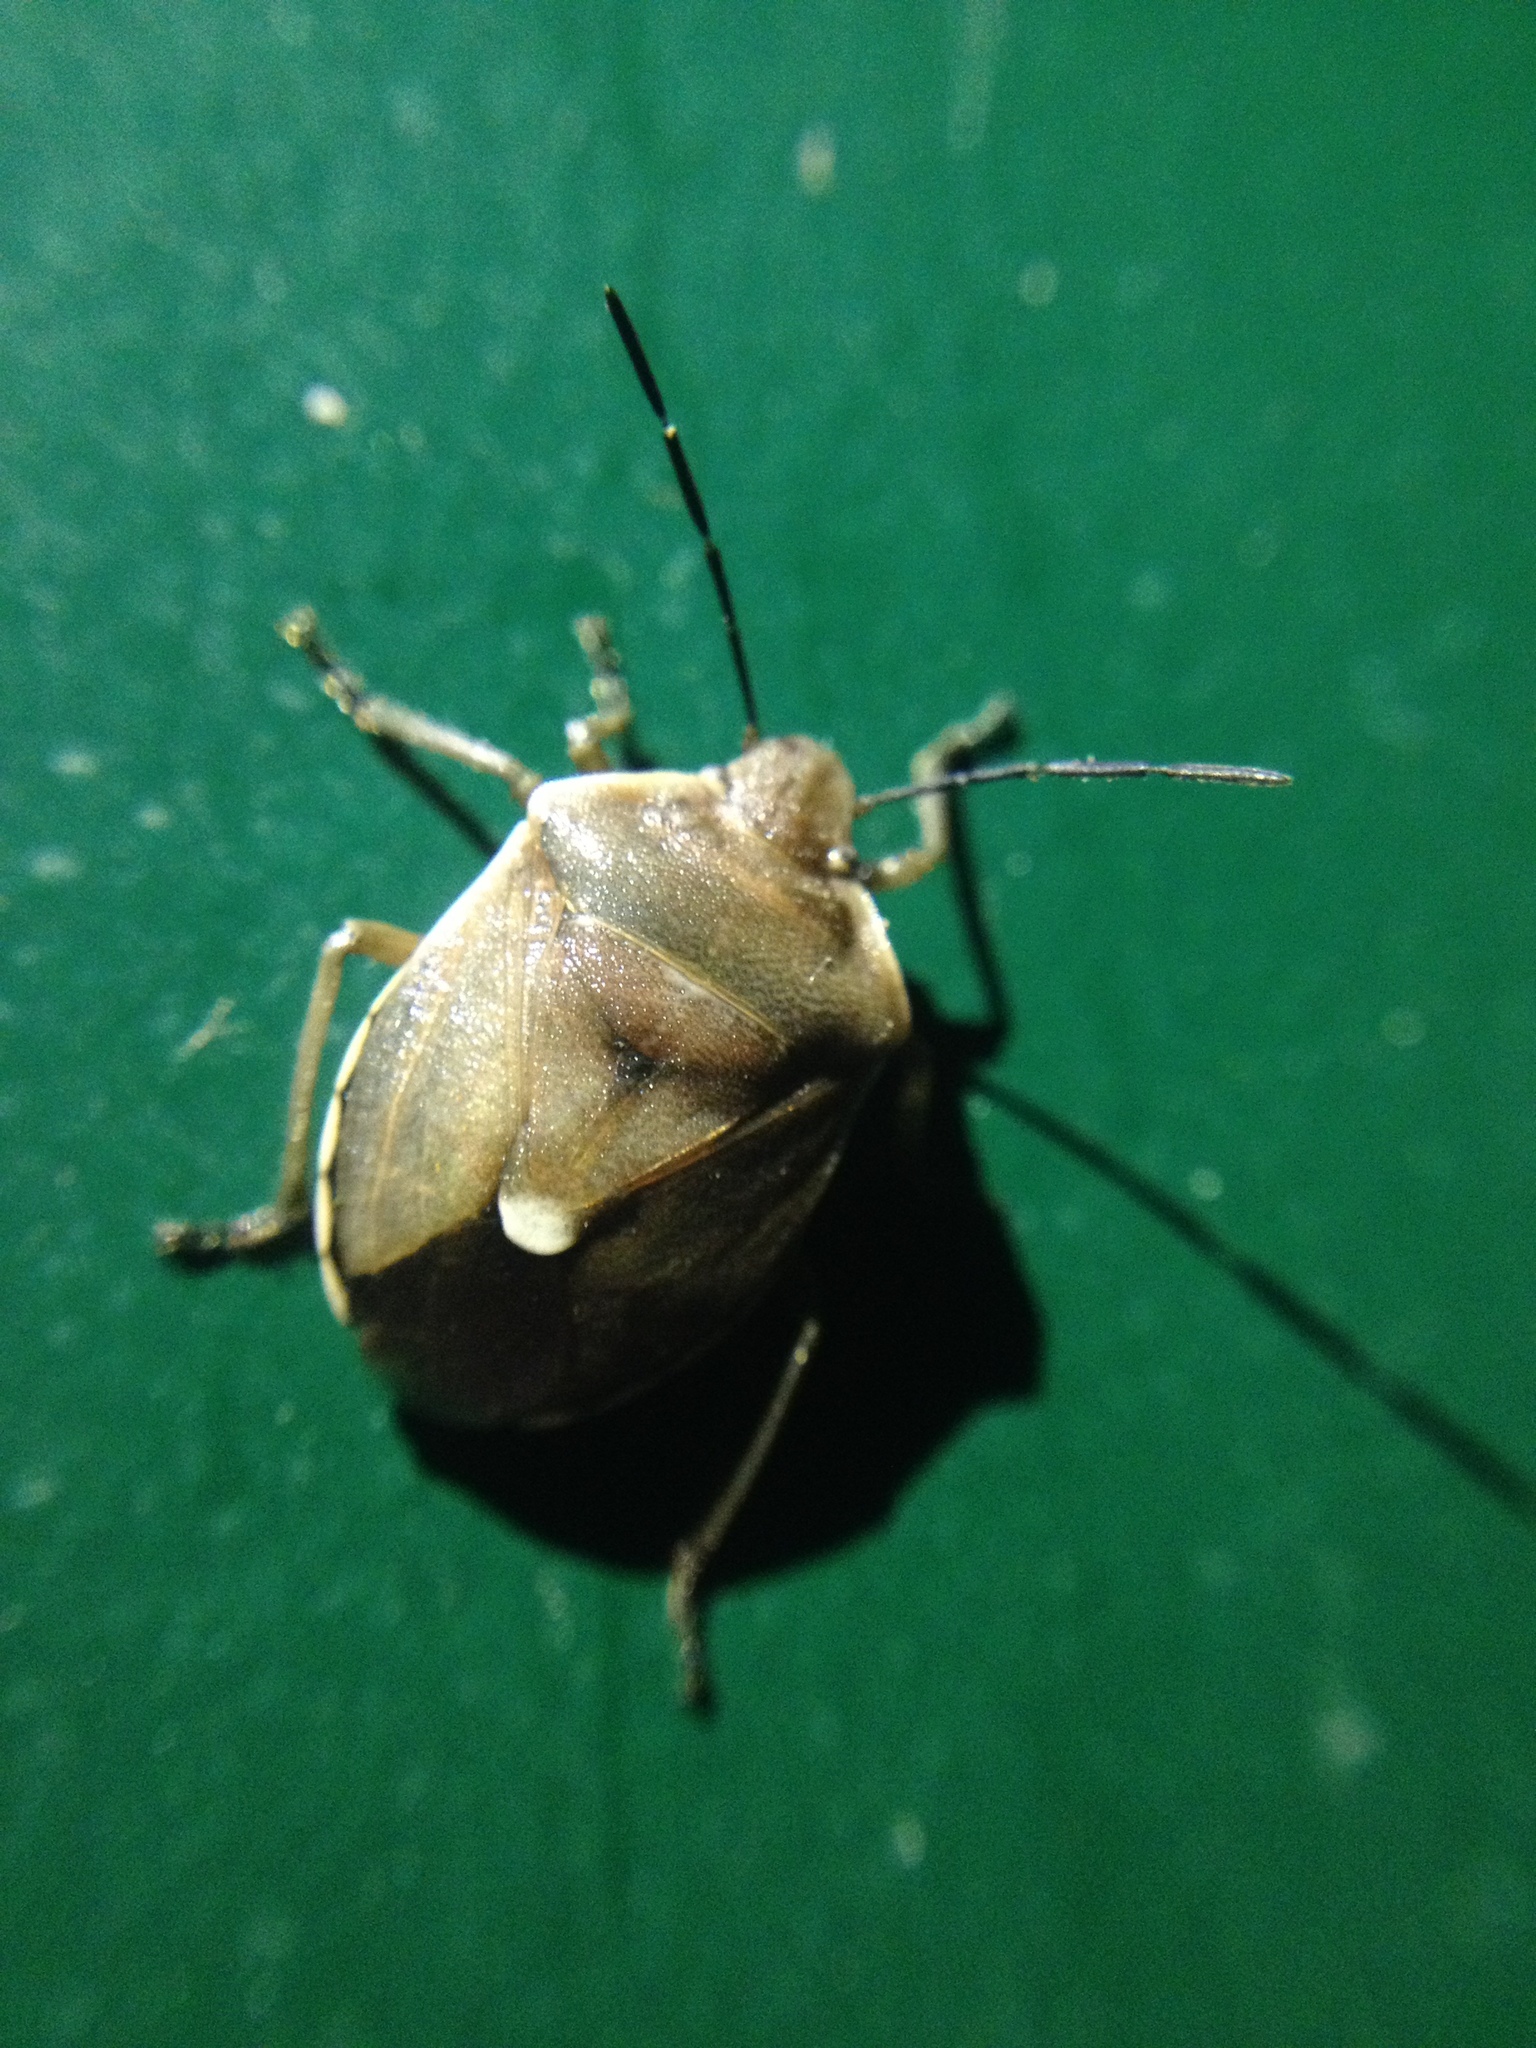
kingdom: Animalia
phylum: Arthropoda
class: Insecta
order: Hemiptera
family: Pentatomidae
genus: Chlorochroa
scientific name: Chlorochroa pinicola
